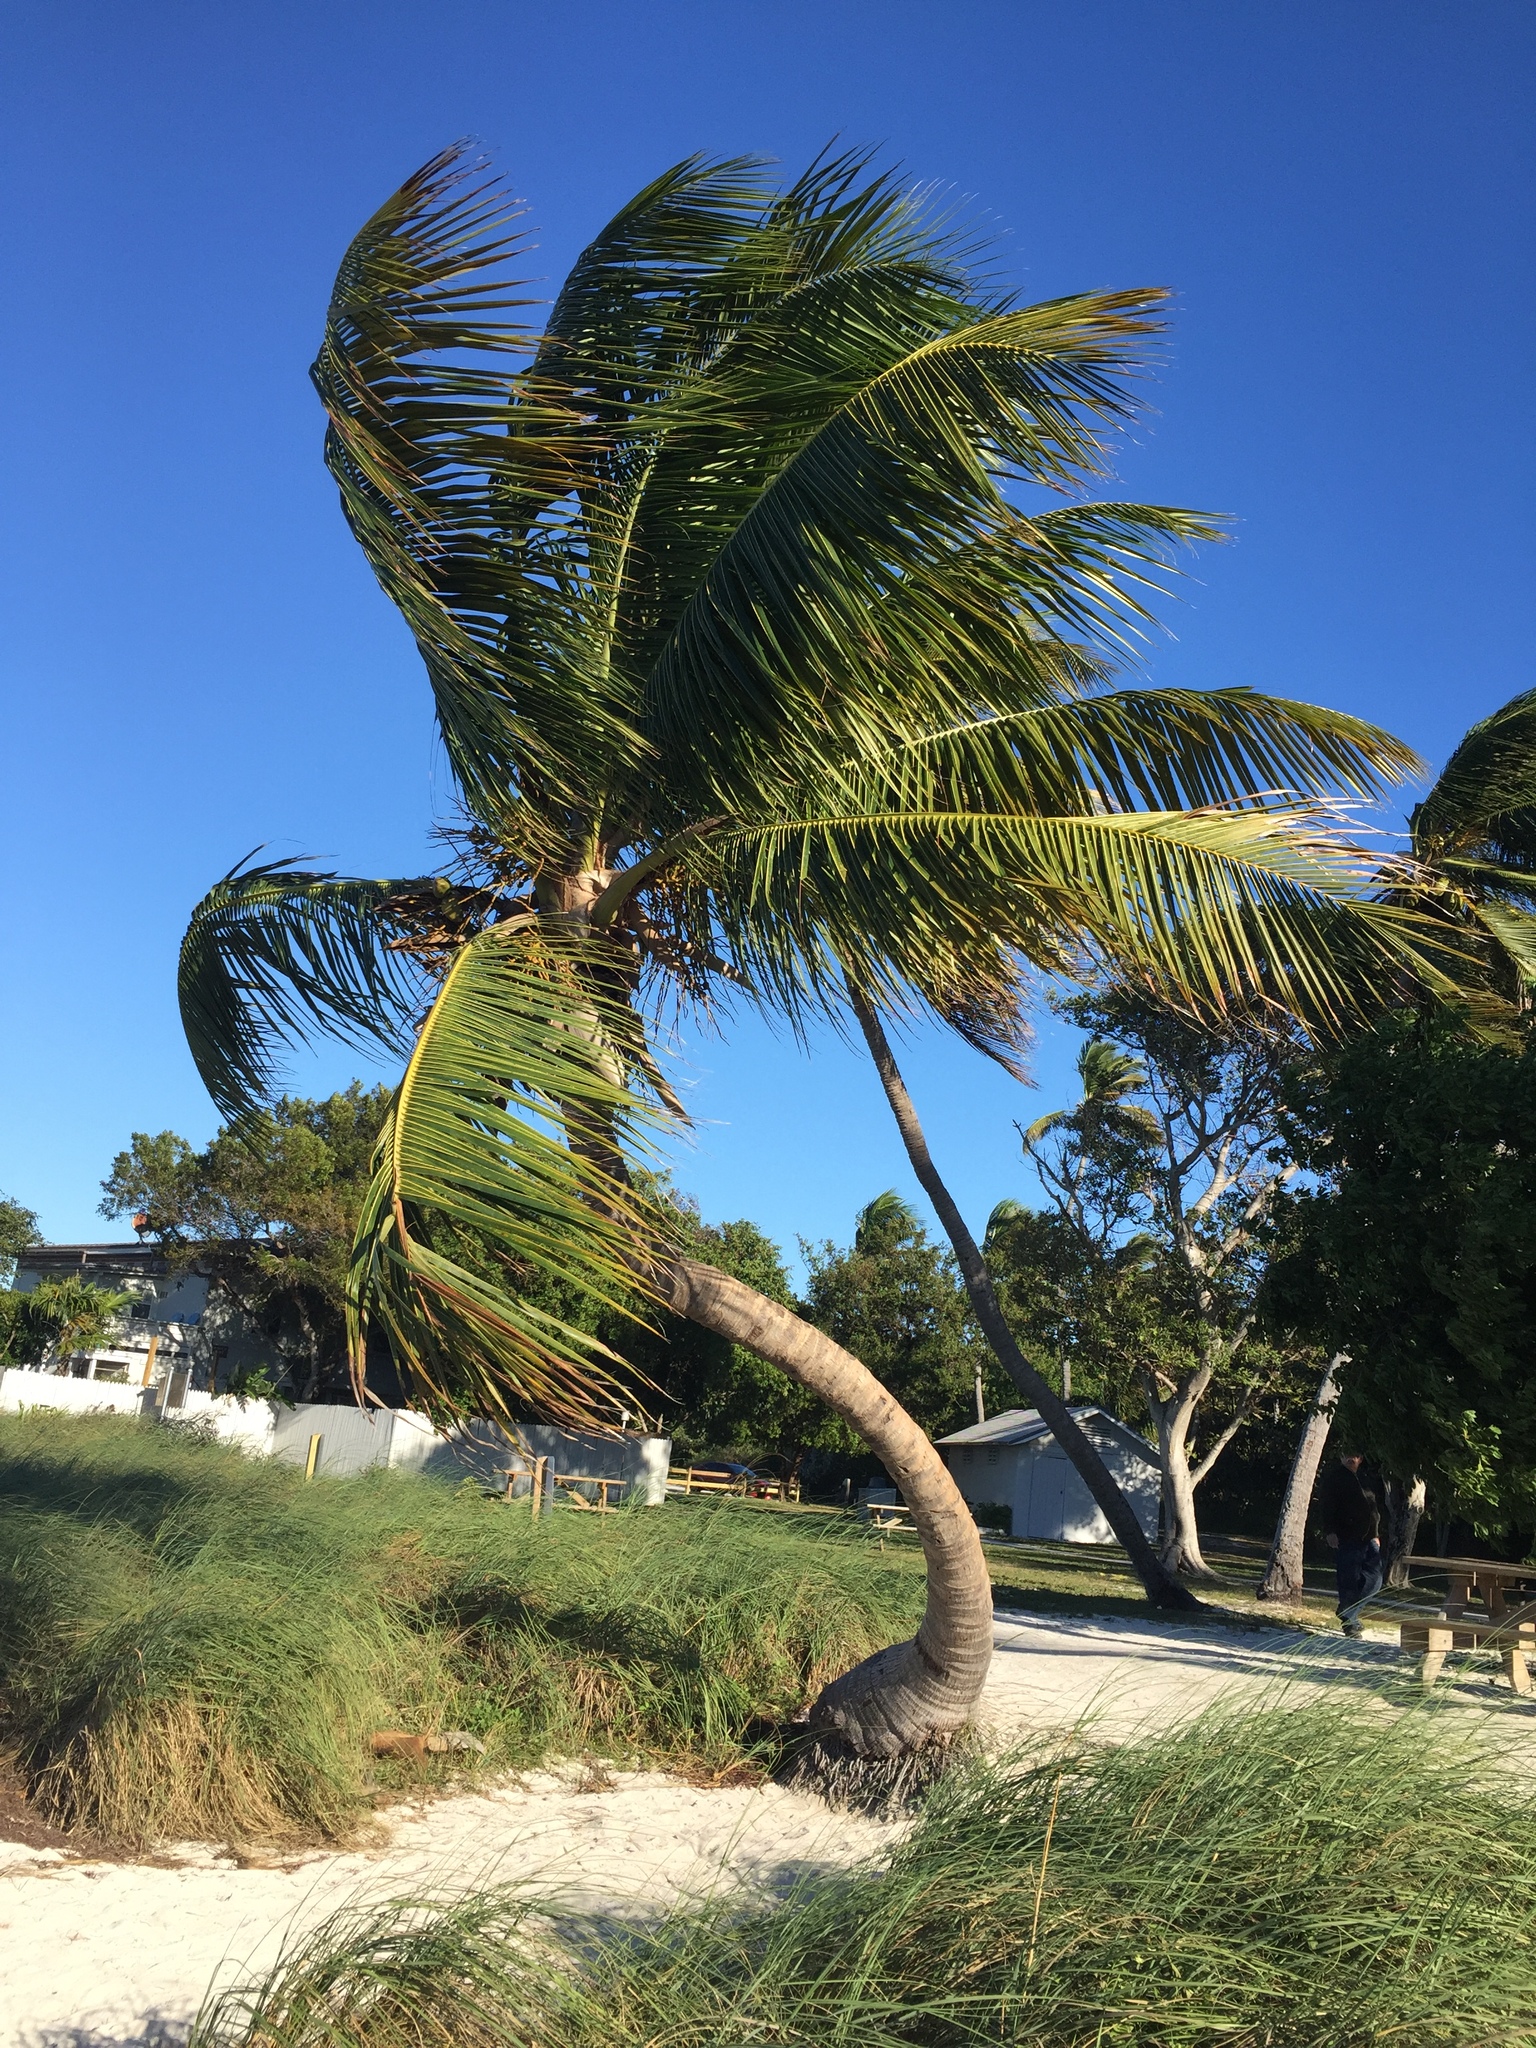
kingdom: Plantae
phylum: Tracheophyta
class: Liliopsida
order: Arecales
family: Arecaceae
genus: Cocos
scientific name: Cocos nucifera
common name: Coconut palm
